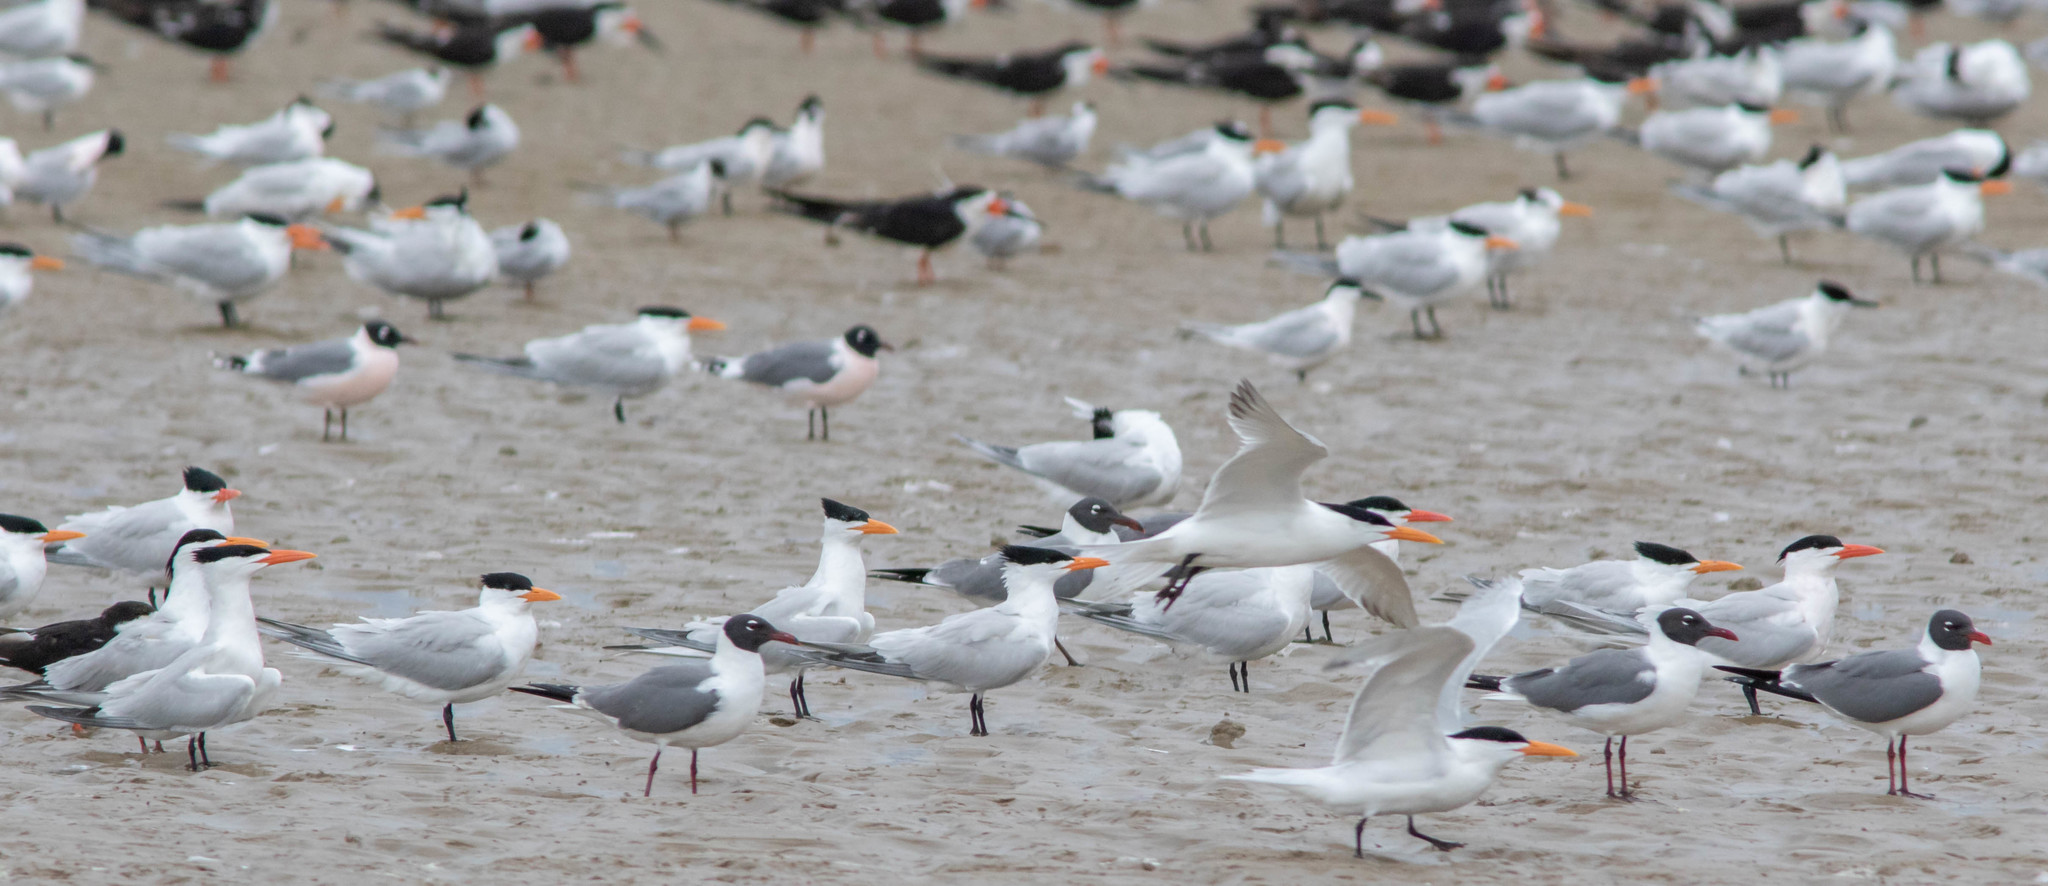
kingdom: Animalia
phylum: Chordata
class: Aves
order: Charadriiformes
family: Laridae
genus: Thalasseus
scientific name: Thalasseus maximus
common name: Royal tern
